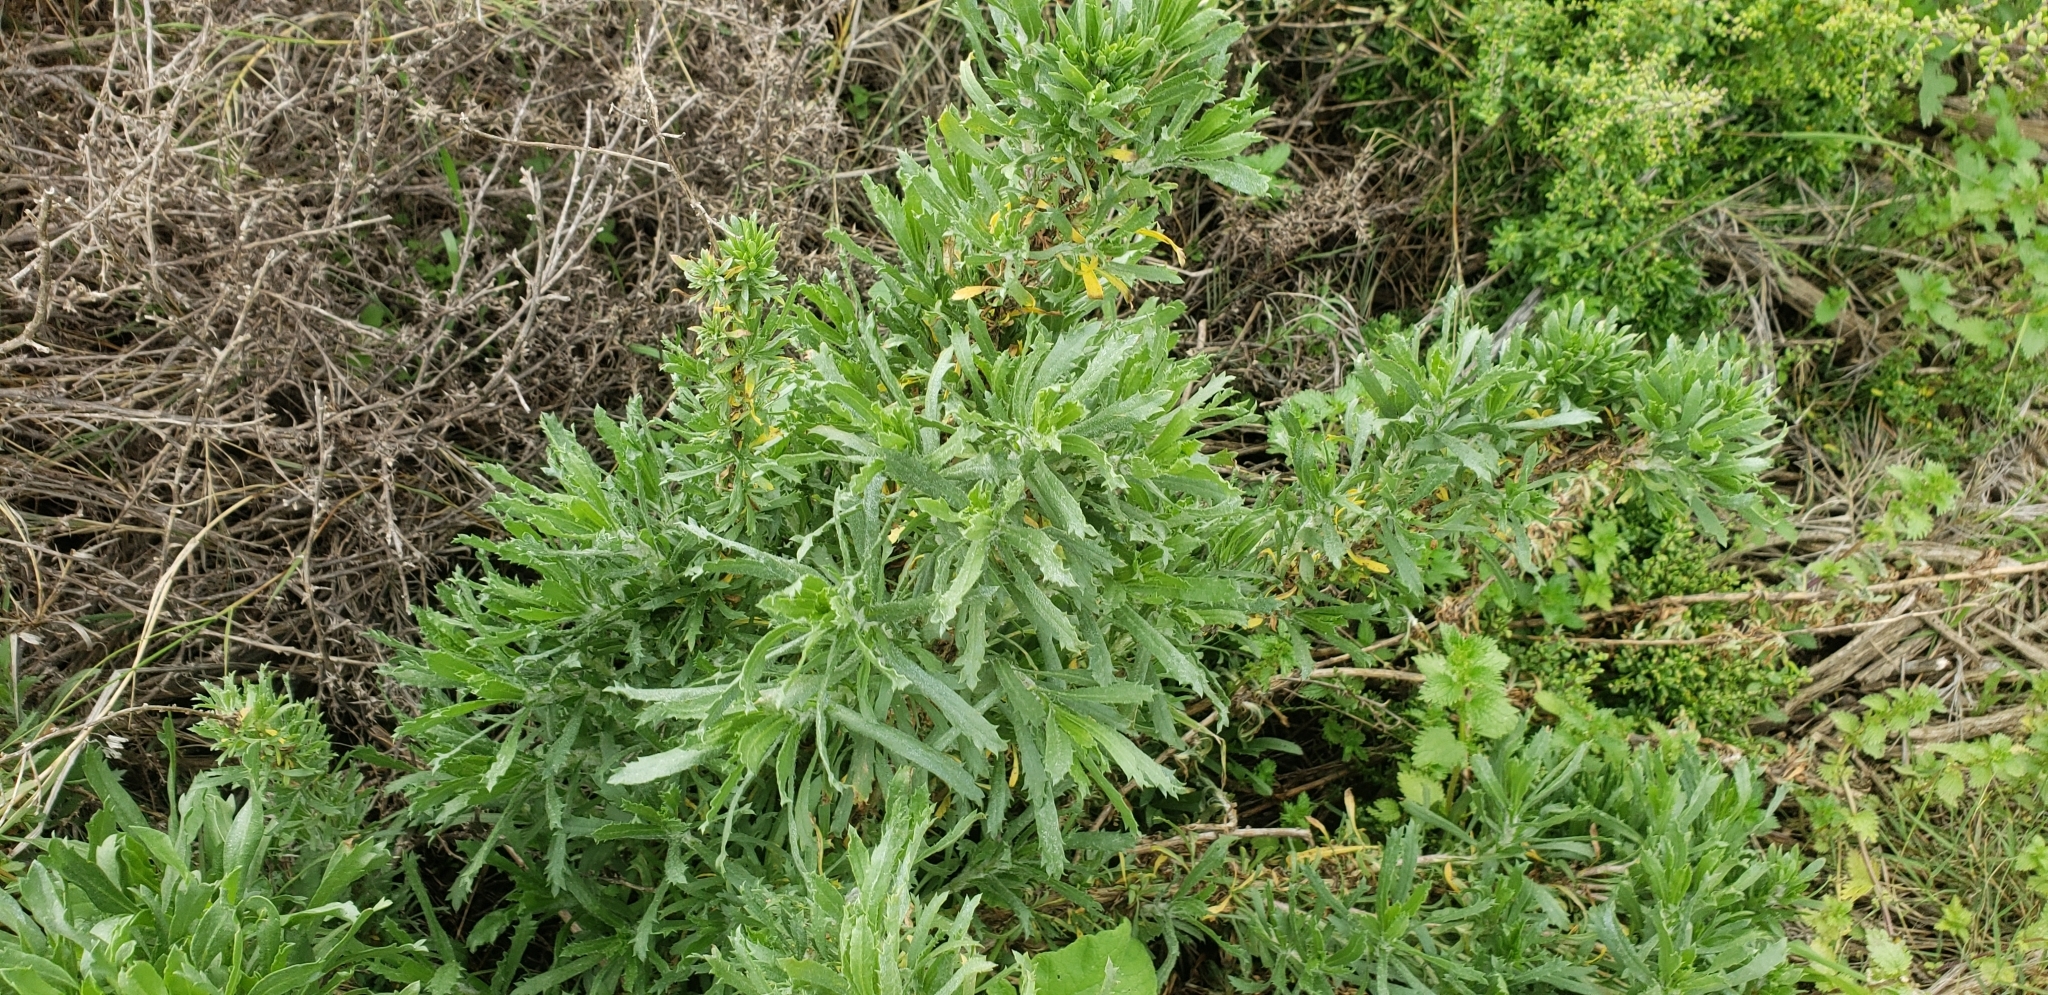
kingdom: Plantae
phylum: Tracheophyta
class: Magnoliopsida
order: Asterales
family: Asteraceae
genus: Isocoma
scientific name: Isocoma menziesii
